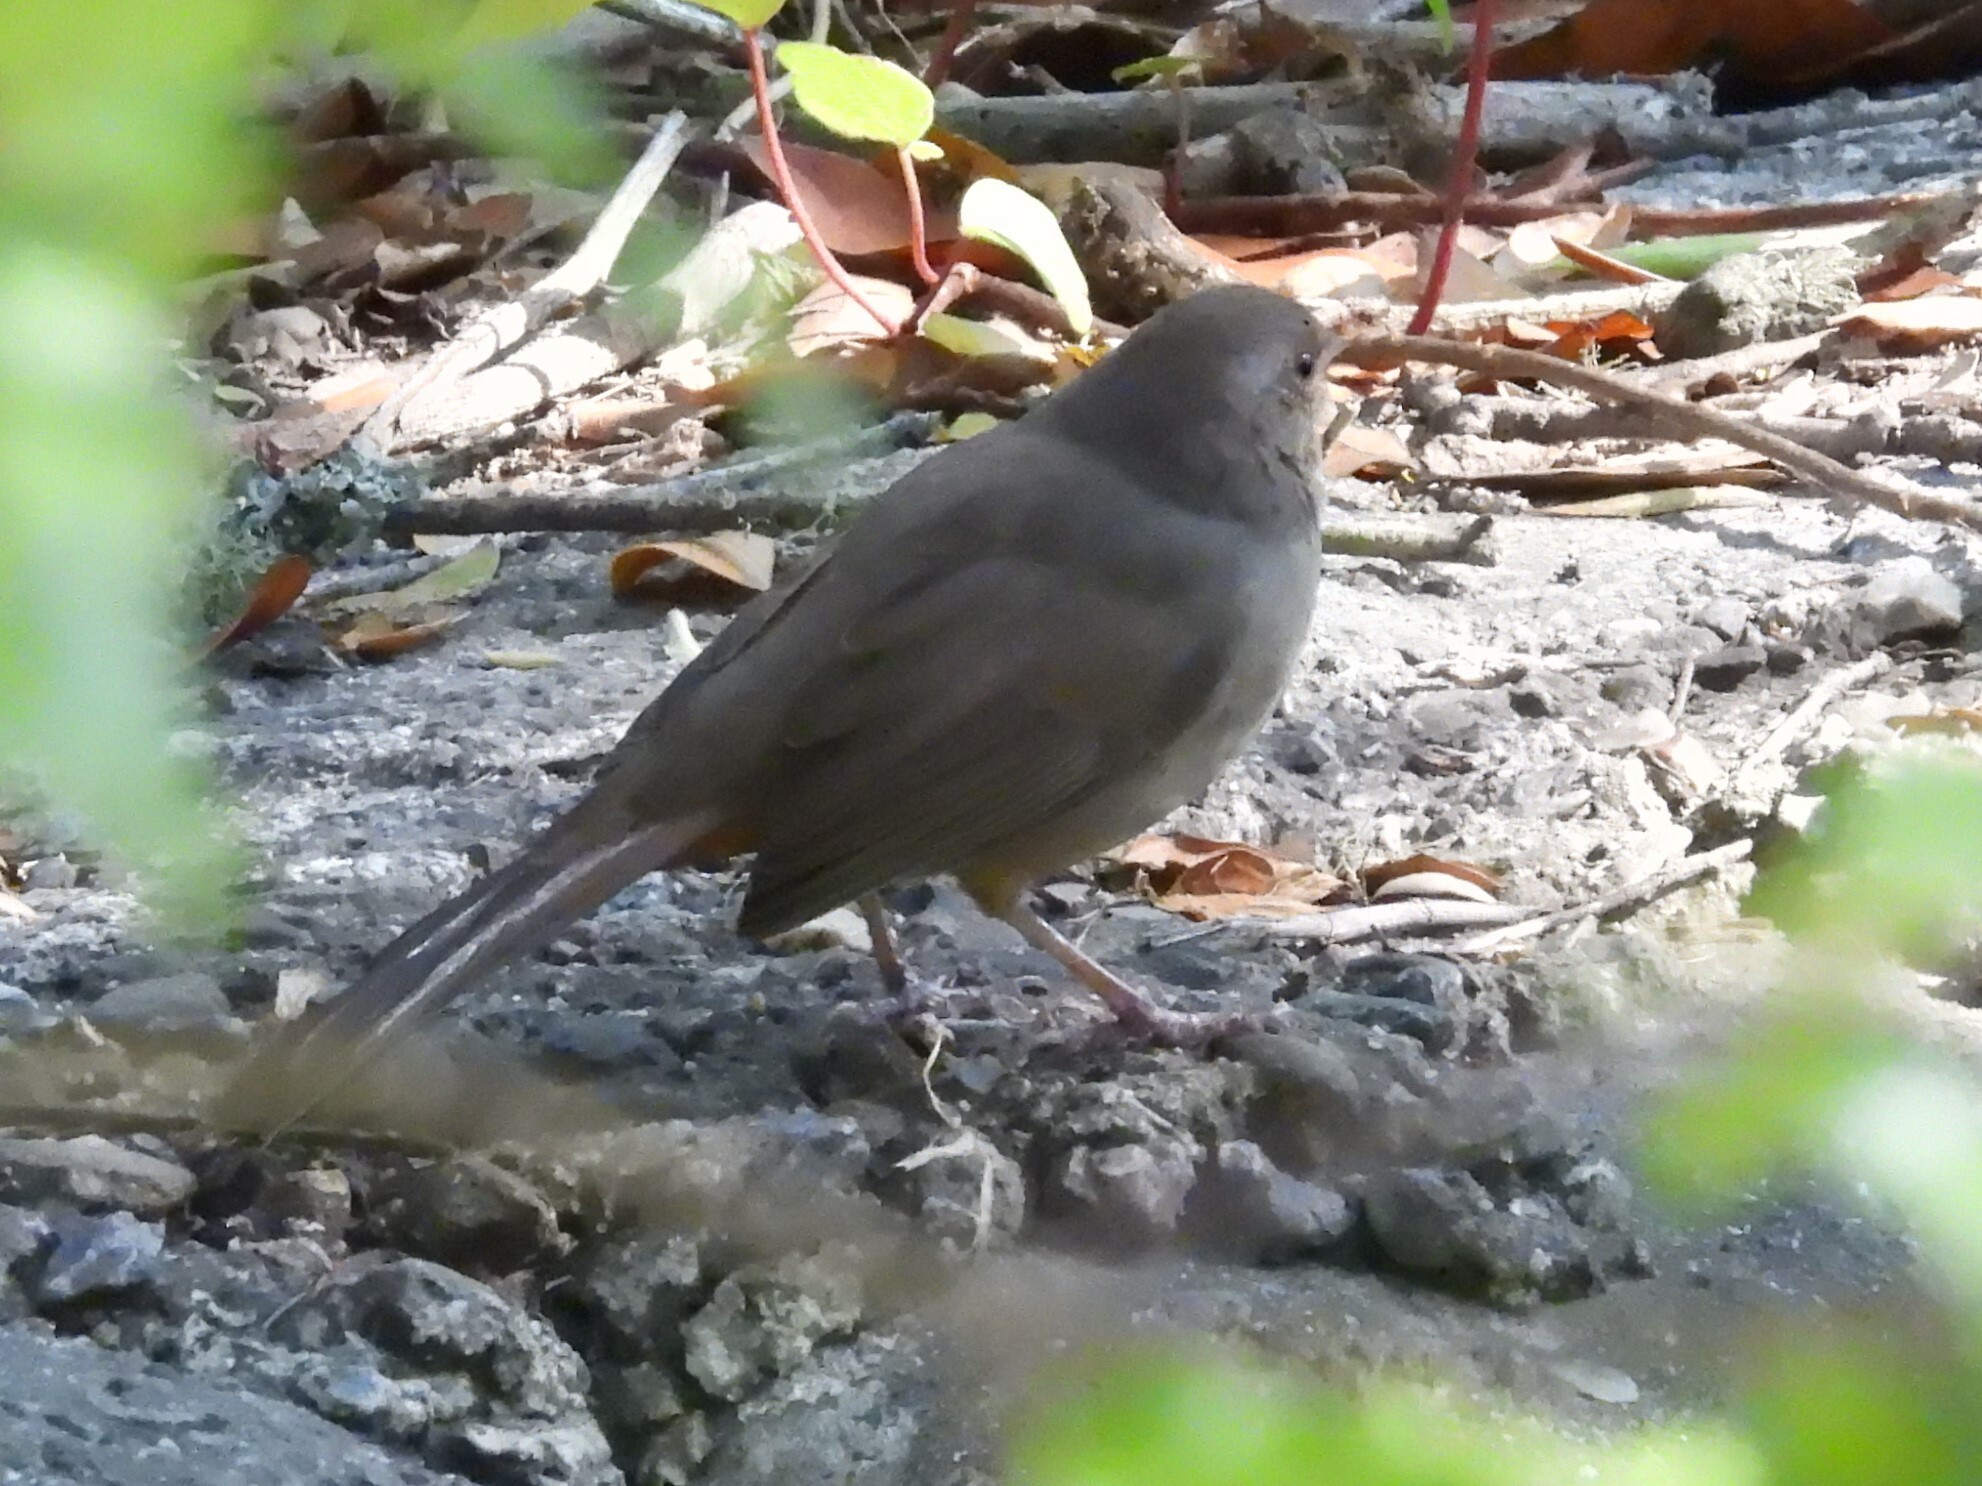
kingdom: Animalia
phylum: Chordata
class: Aves
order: Passeriformes
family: Passerellidae
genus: Melozone
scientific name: Melozone crissalis
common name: California towhee
